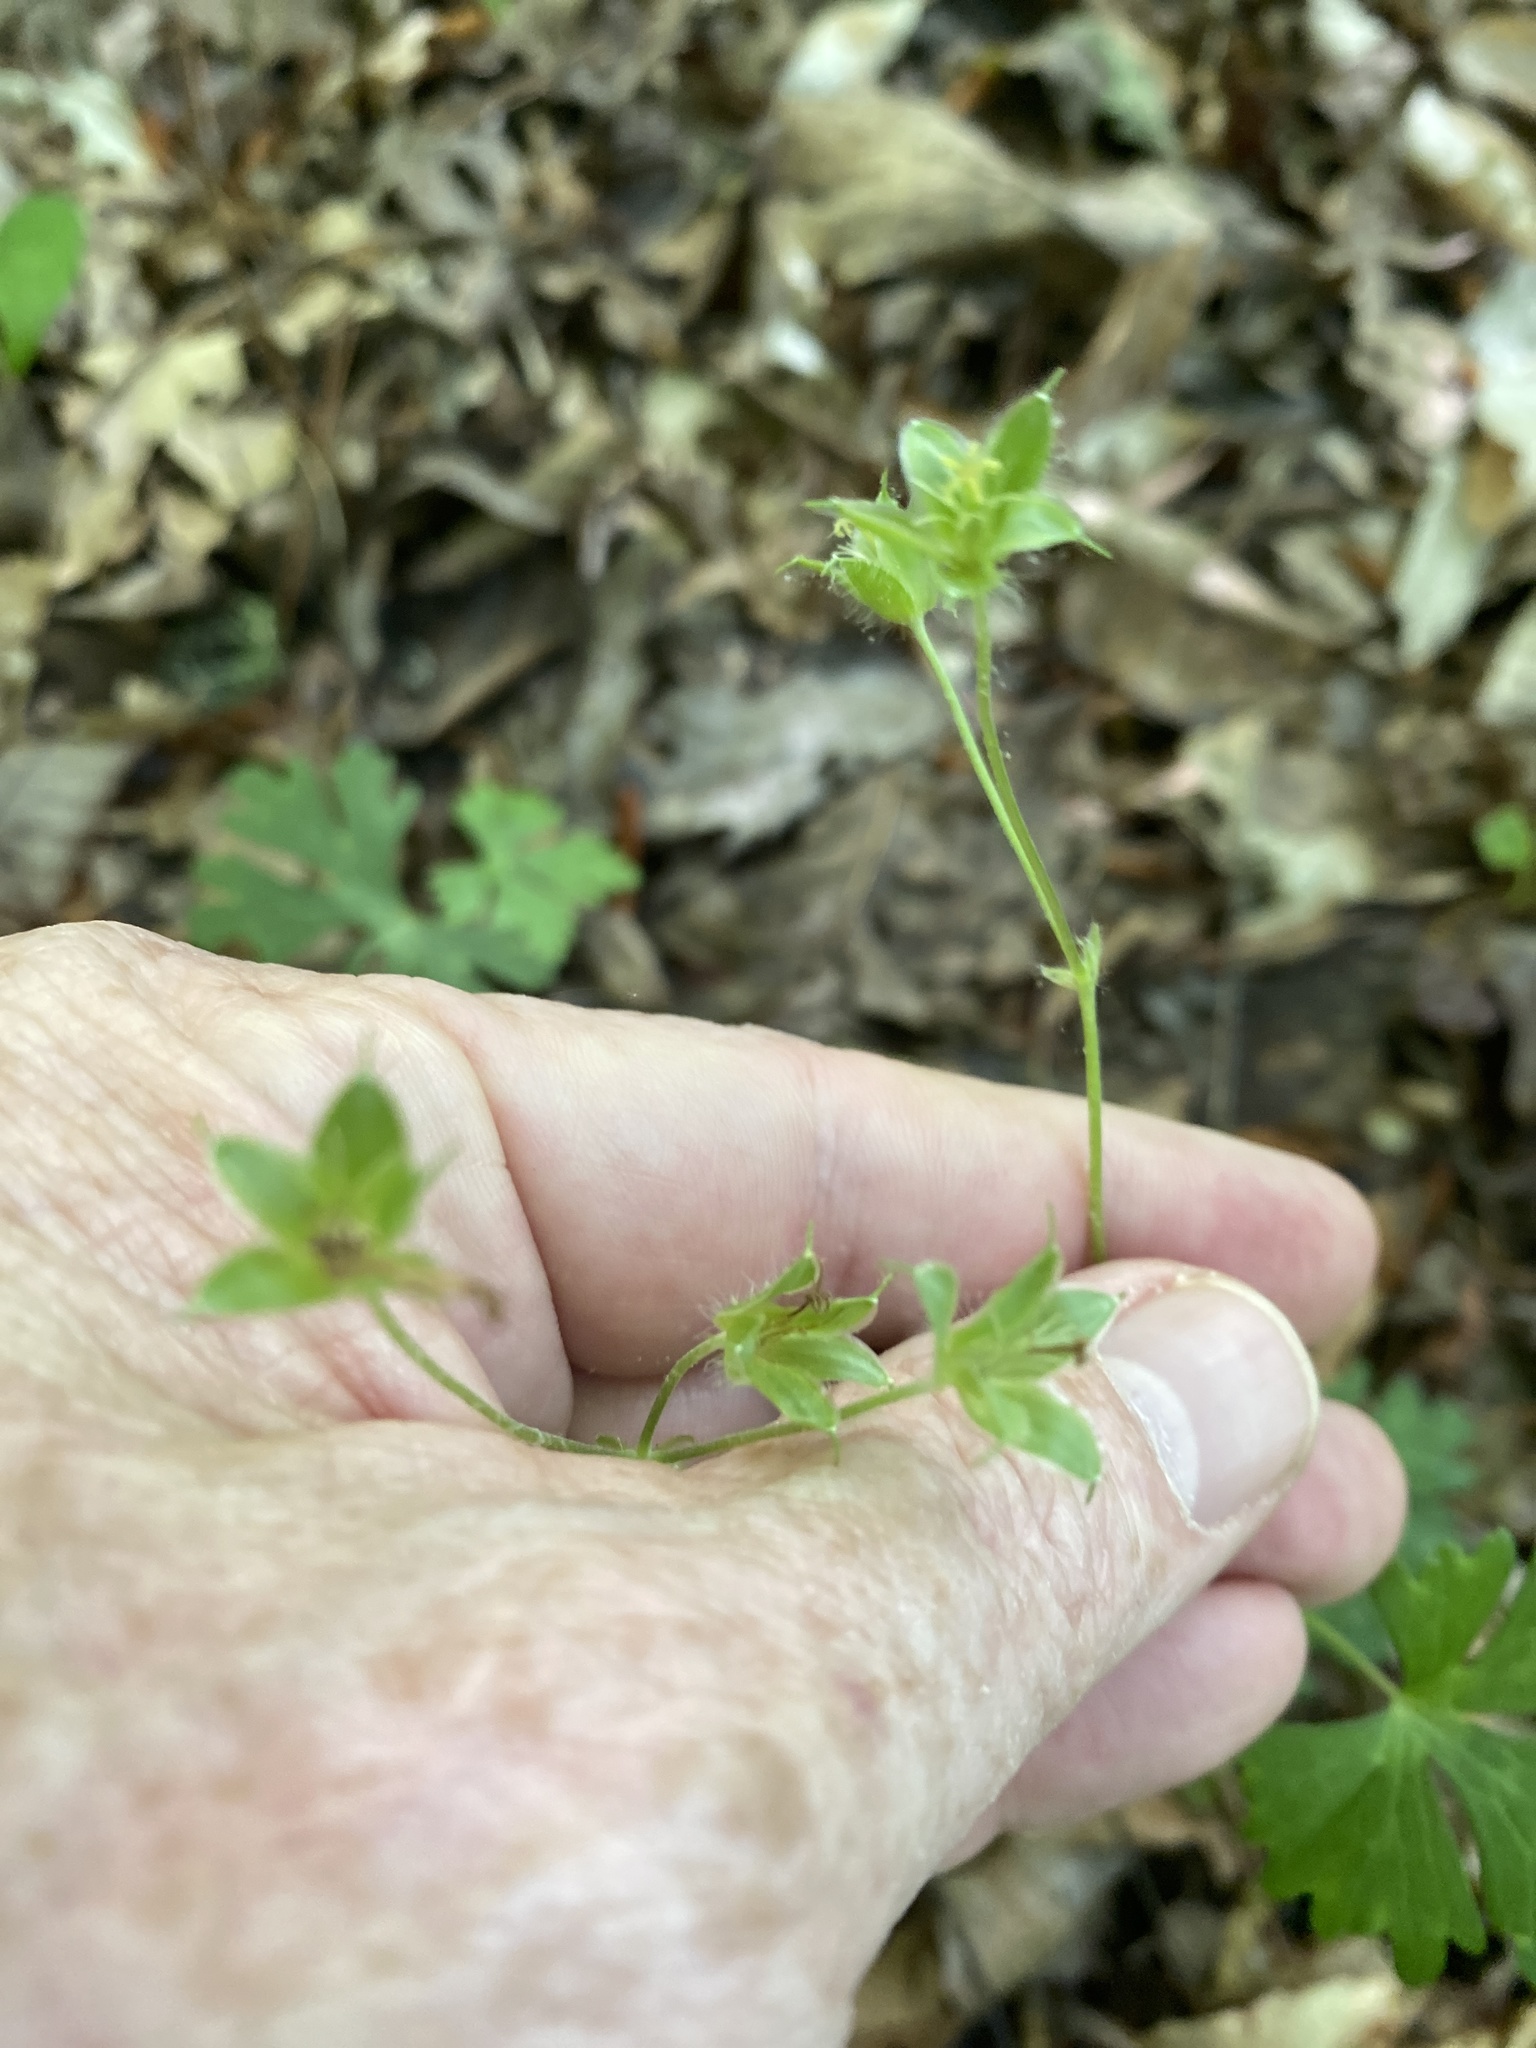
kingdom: Plantae
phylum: Tracheophyta
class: Magnoliopsida
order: Geraniales
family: Geraniaceae
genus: Geranium
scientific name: Geranium maculatum
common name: Spotted geranium
